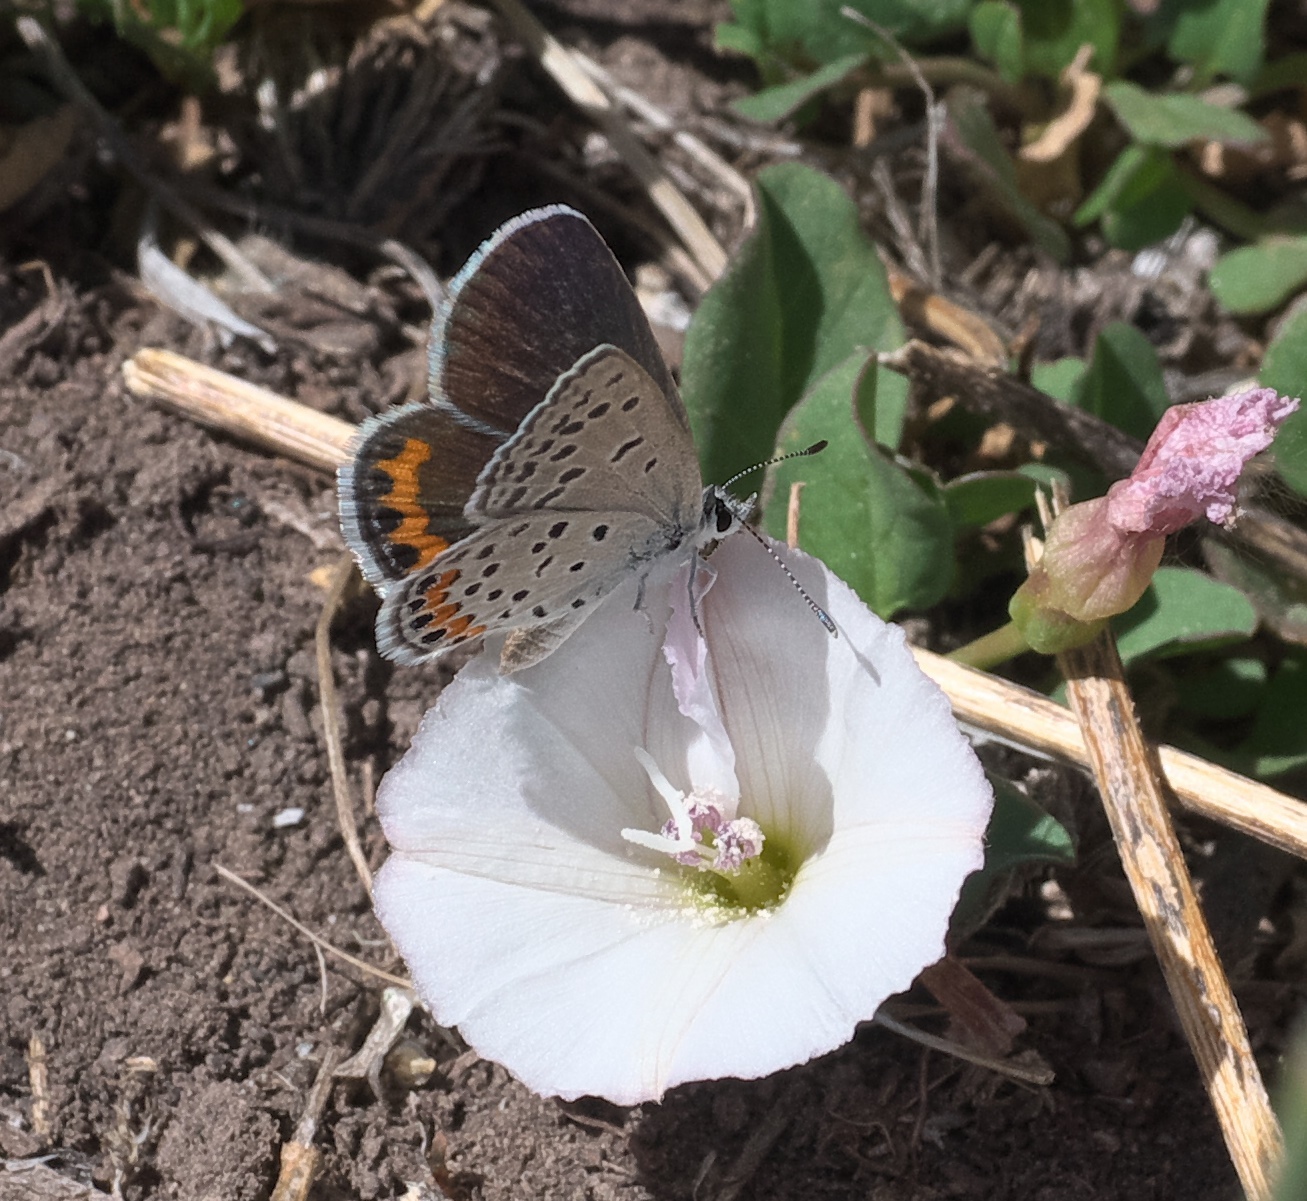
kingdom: Animalia
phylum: Arthropoda
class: Insecta
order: Lepidoptera
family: Lycaenidae
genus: Icaricia
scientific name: Icaricia lupini
